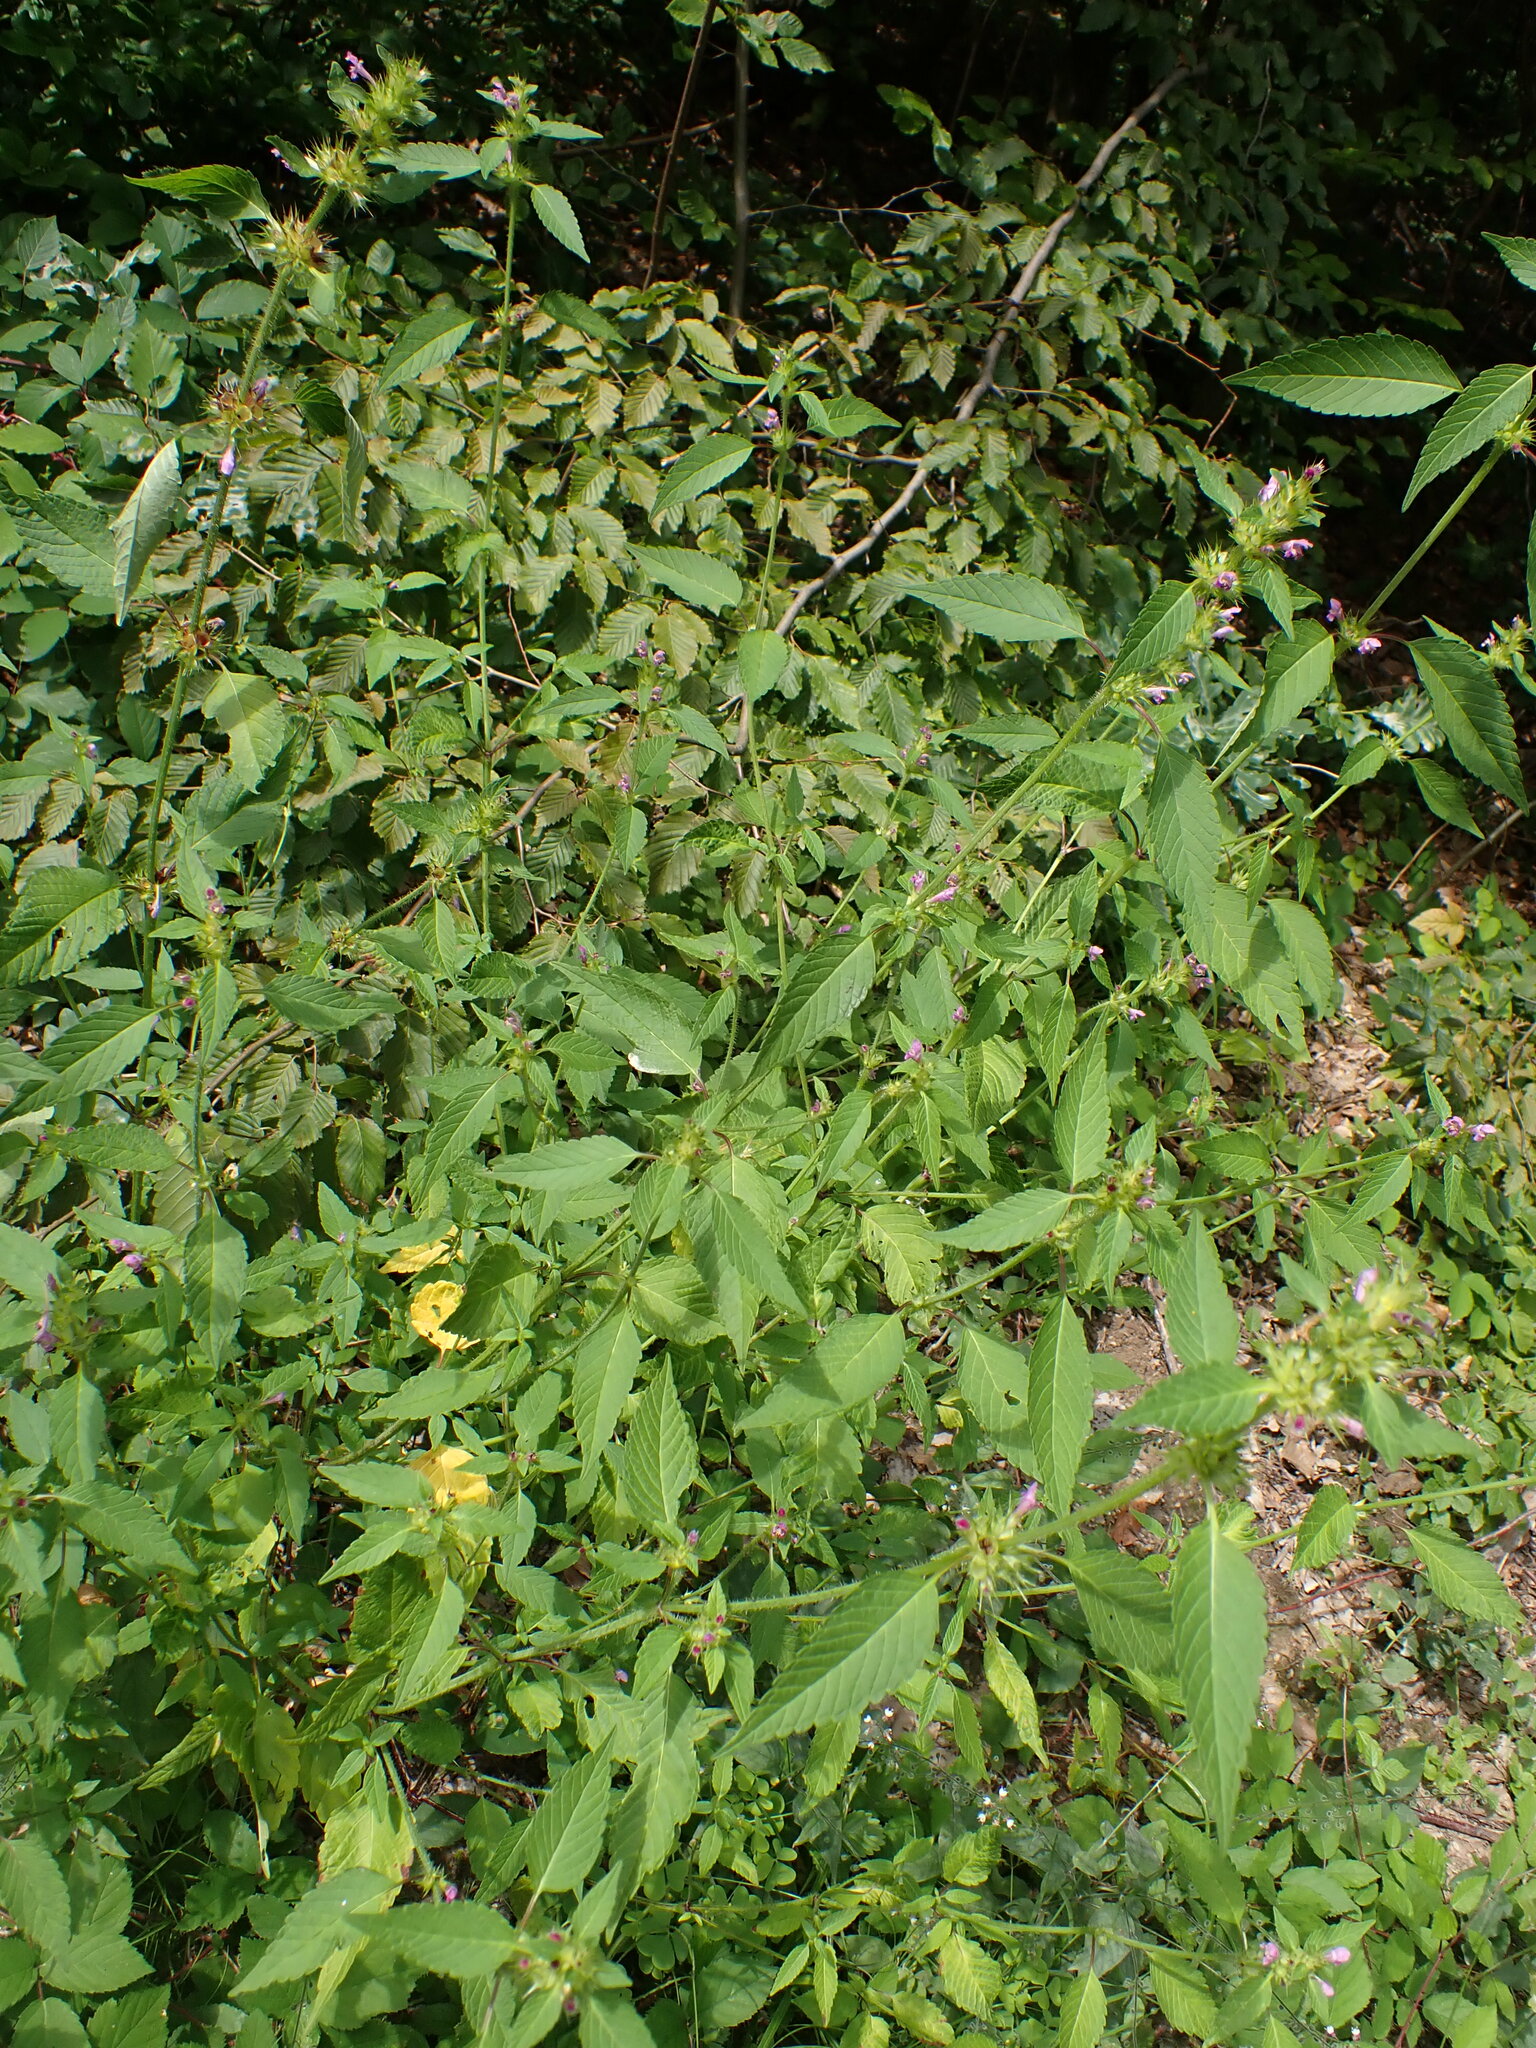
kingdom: Plantae
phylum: Tracheophyta
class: Magnoliopsida
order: Lamiales
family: Lamiaceae
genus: Galeopsis
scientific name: Galeopsis tetrahit
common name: Common hemp-nettle
